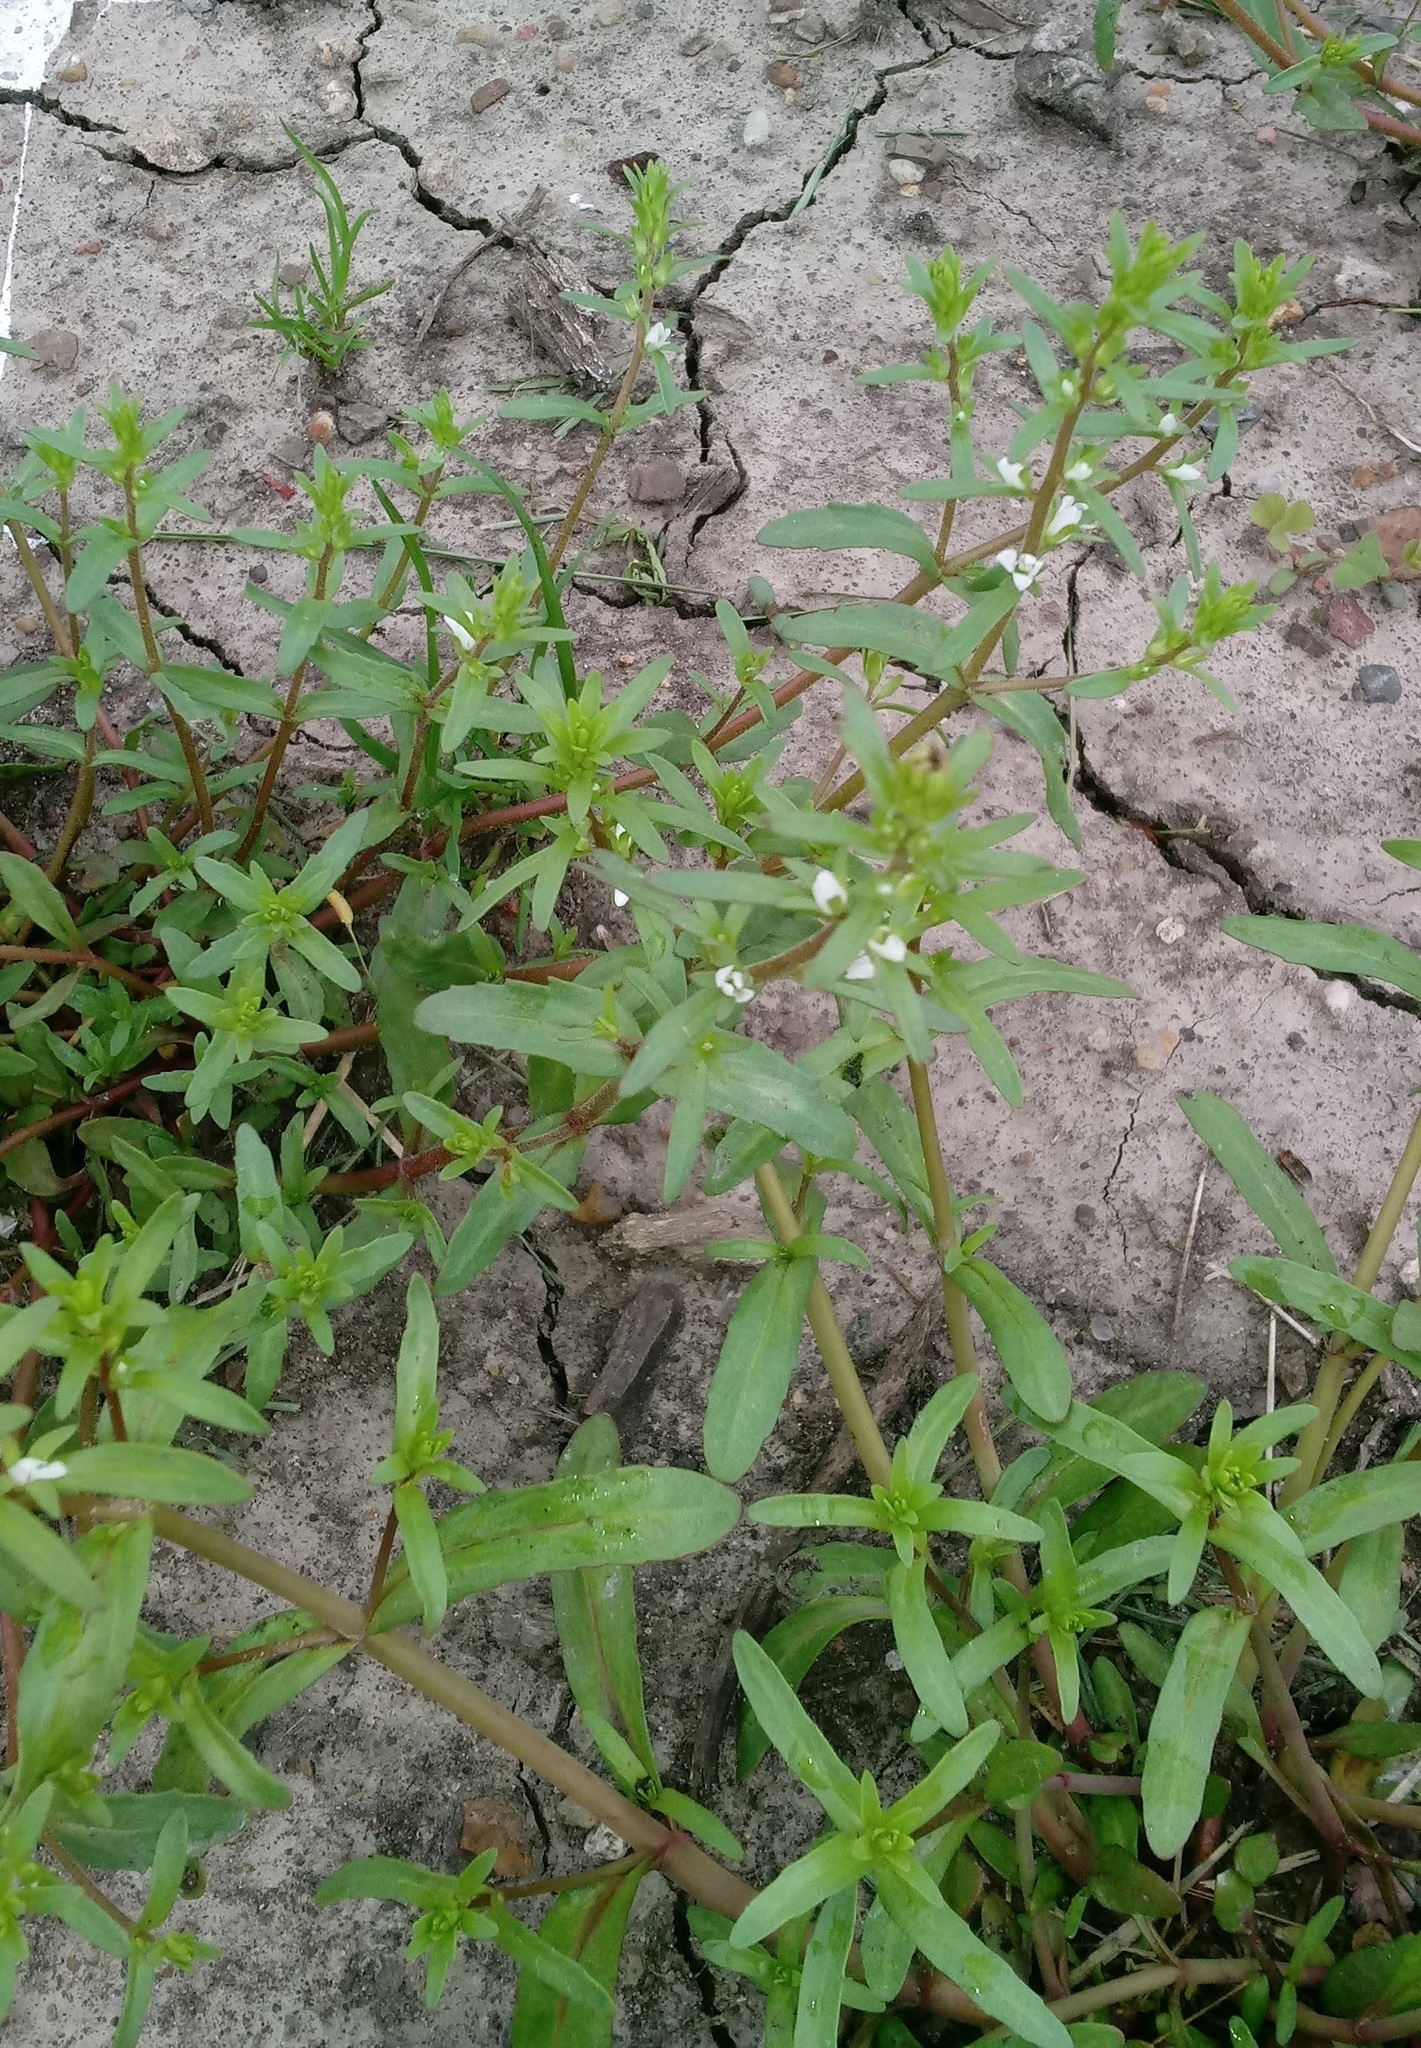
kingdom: Plantae
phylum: Tracheophyta
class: Magnoliopsida
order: Lamiales
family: Plantaginaceae
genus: Veronica
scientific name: Veronica peregrina
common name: Neckweed
